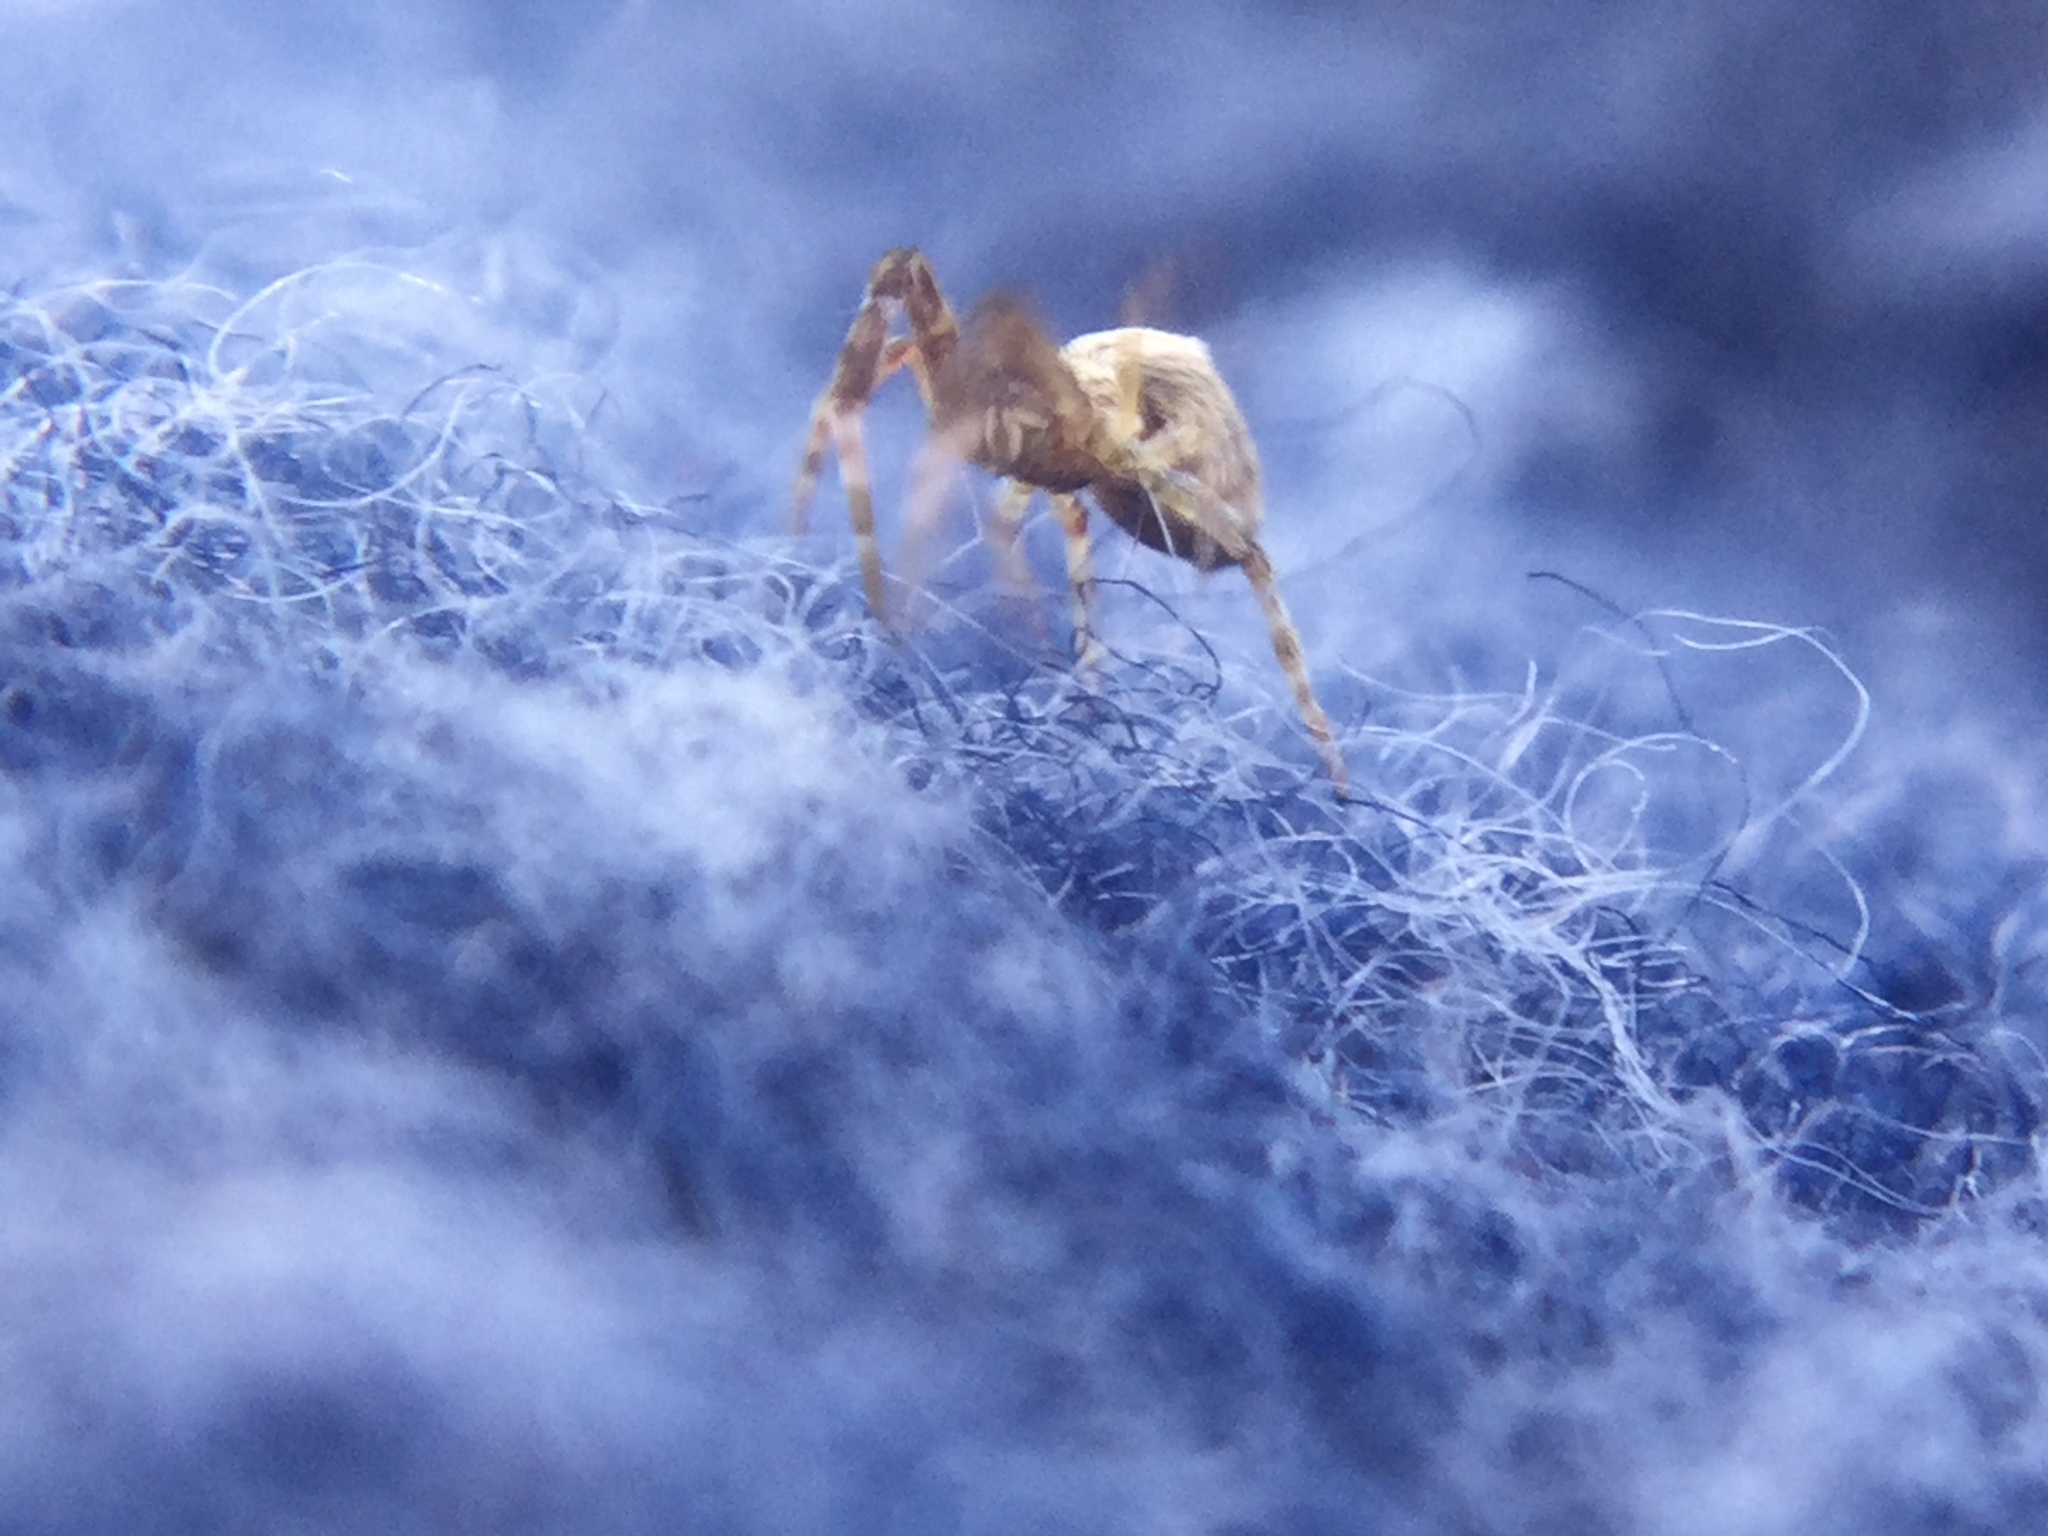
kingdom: Animalia
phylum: Arthropoda
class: Arachnida
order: Araneae
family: Uloboridae
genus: Uloborus
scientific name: Uloborus glomosus
